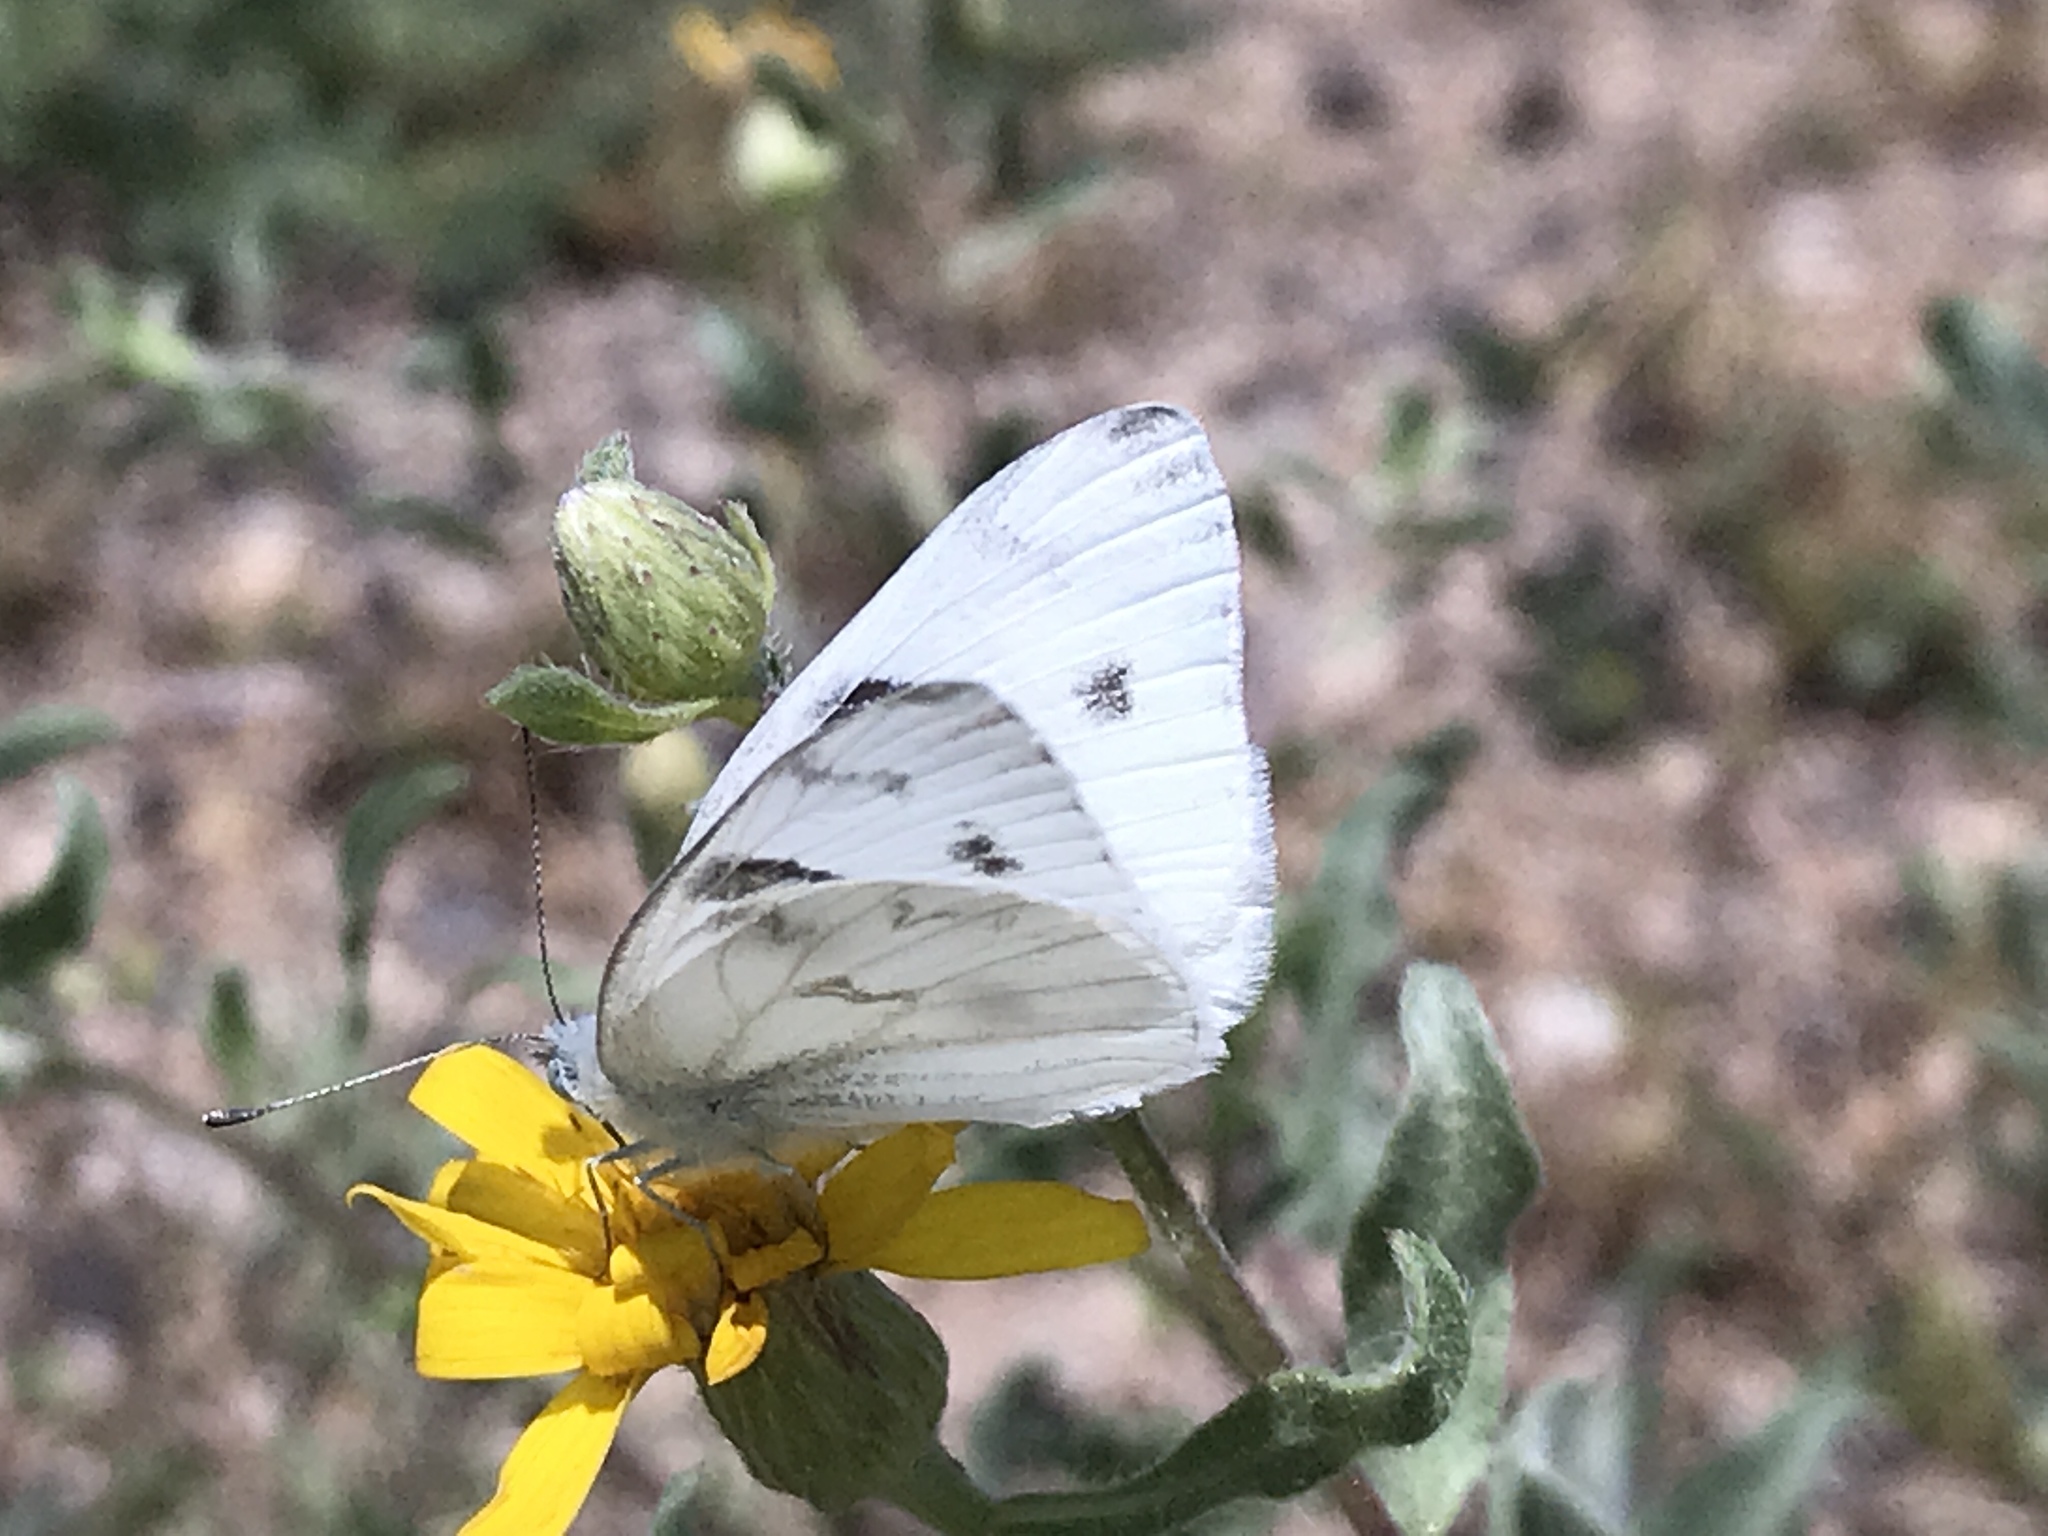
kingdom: Animalia
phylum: Arthropoda
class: Insecta
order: Lepidoptera
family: Pieridae
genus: Pontia
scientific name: Pontia protodice
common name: Checkered white
